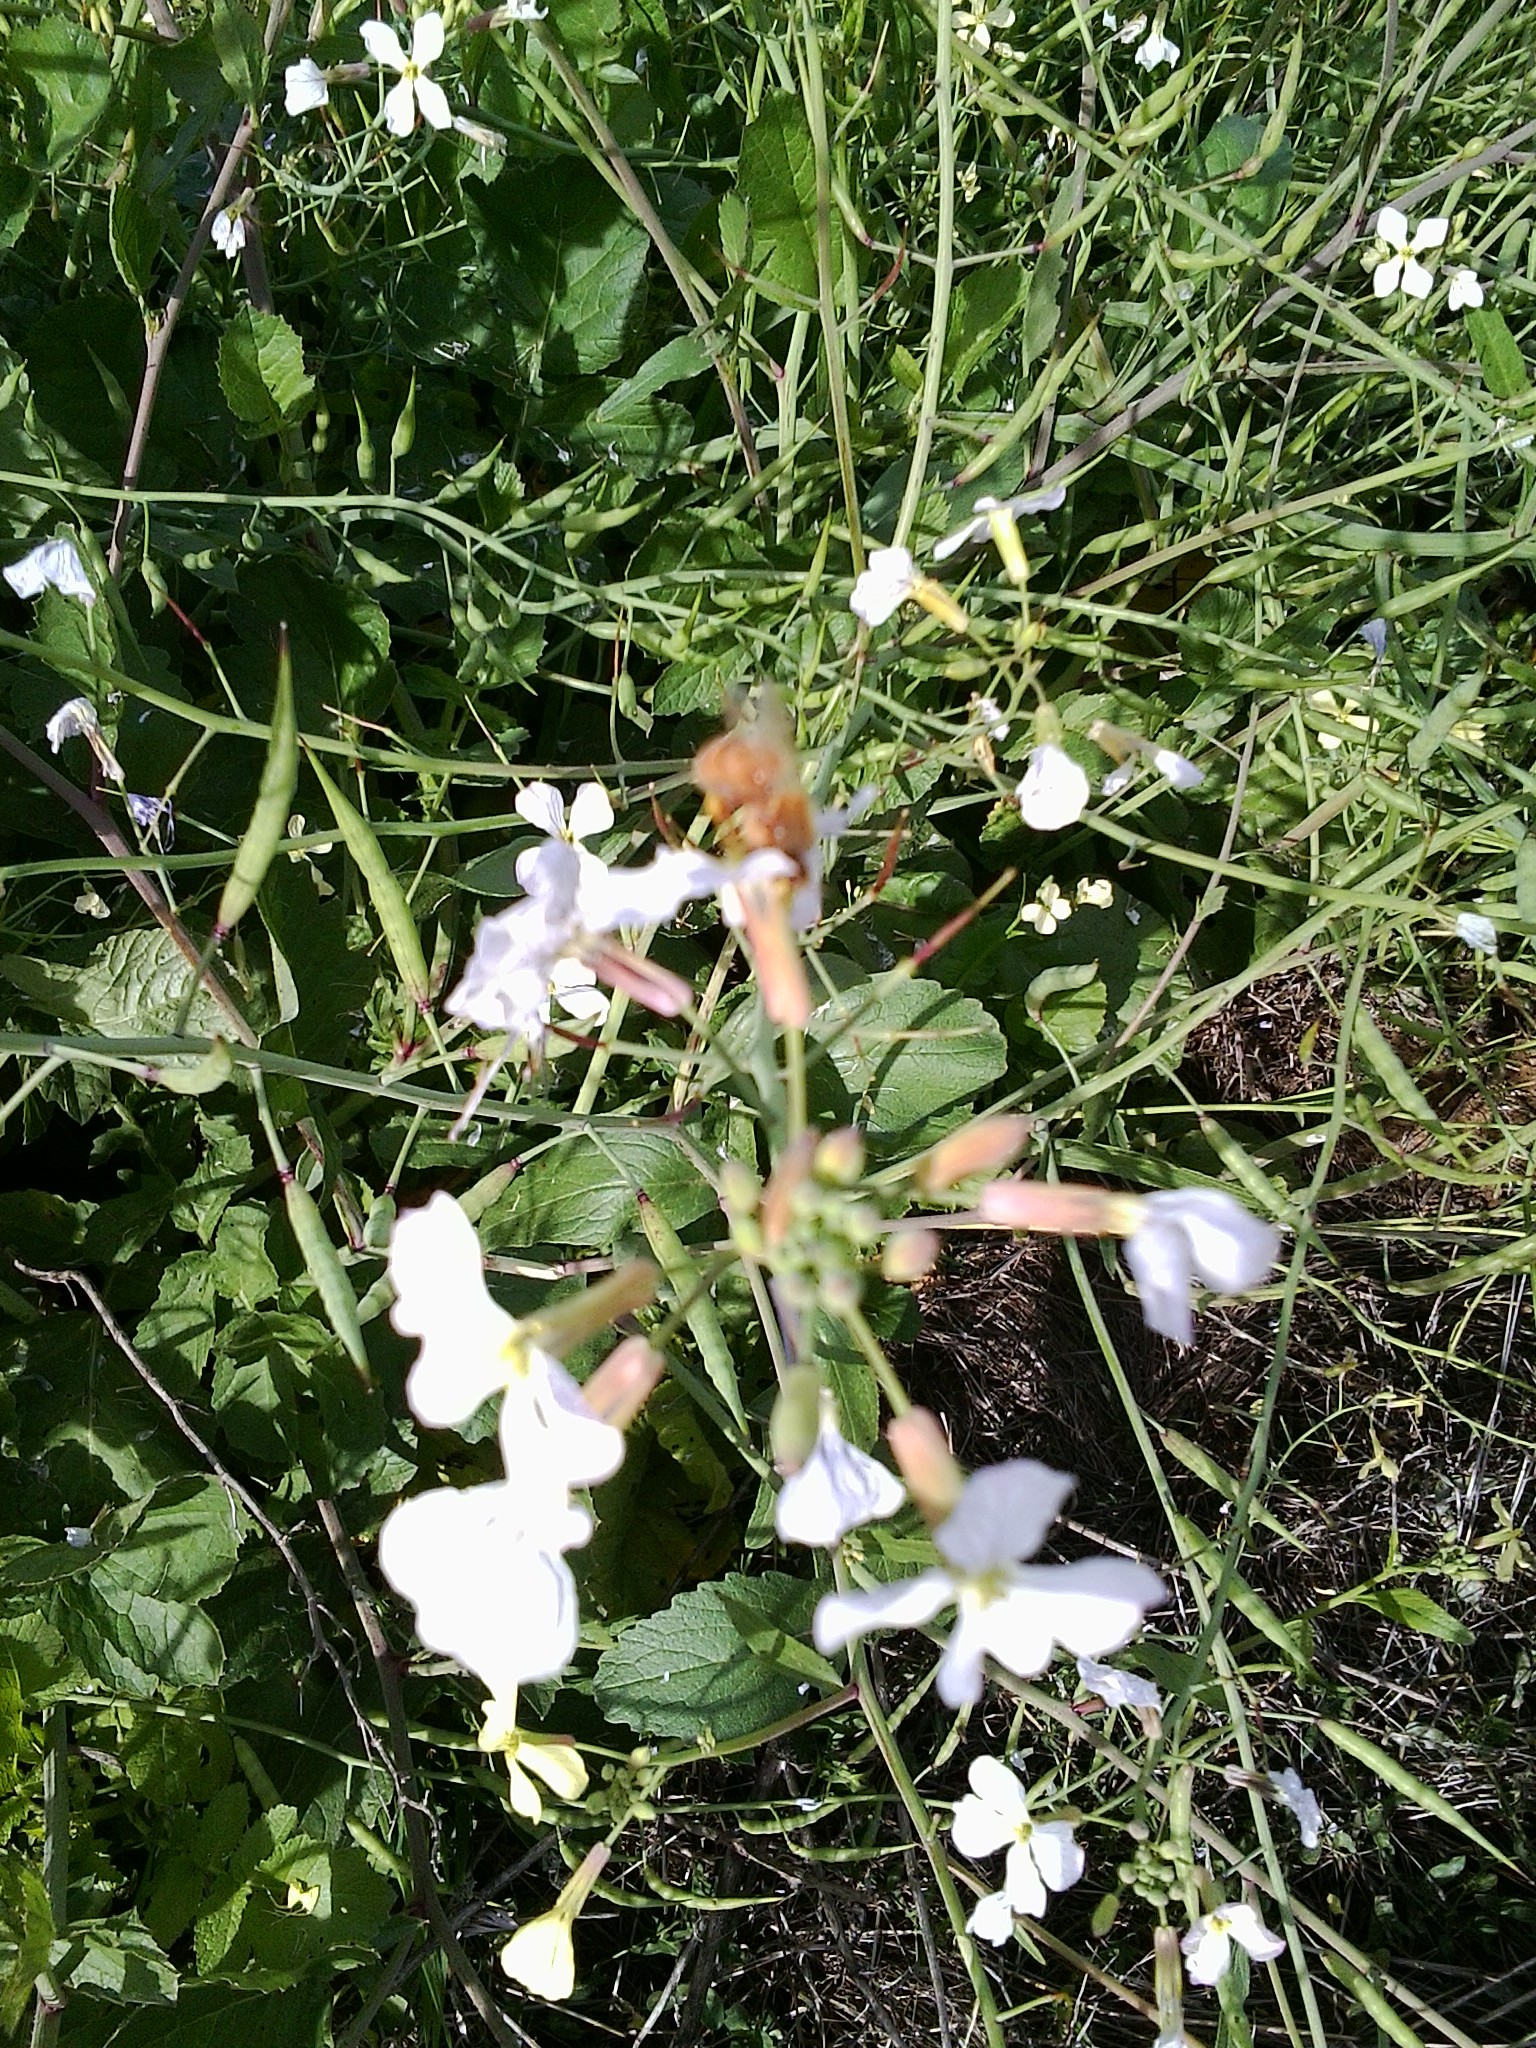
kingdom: Animalia
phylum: Arthropoda
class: Insecta
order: Hymenoptera
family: Apidae
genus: Apis
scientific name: Apis mellifera
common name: Honey bee
